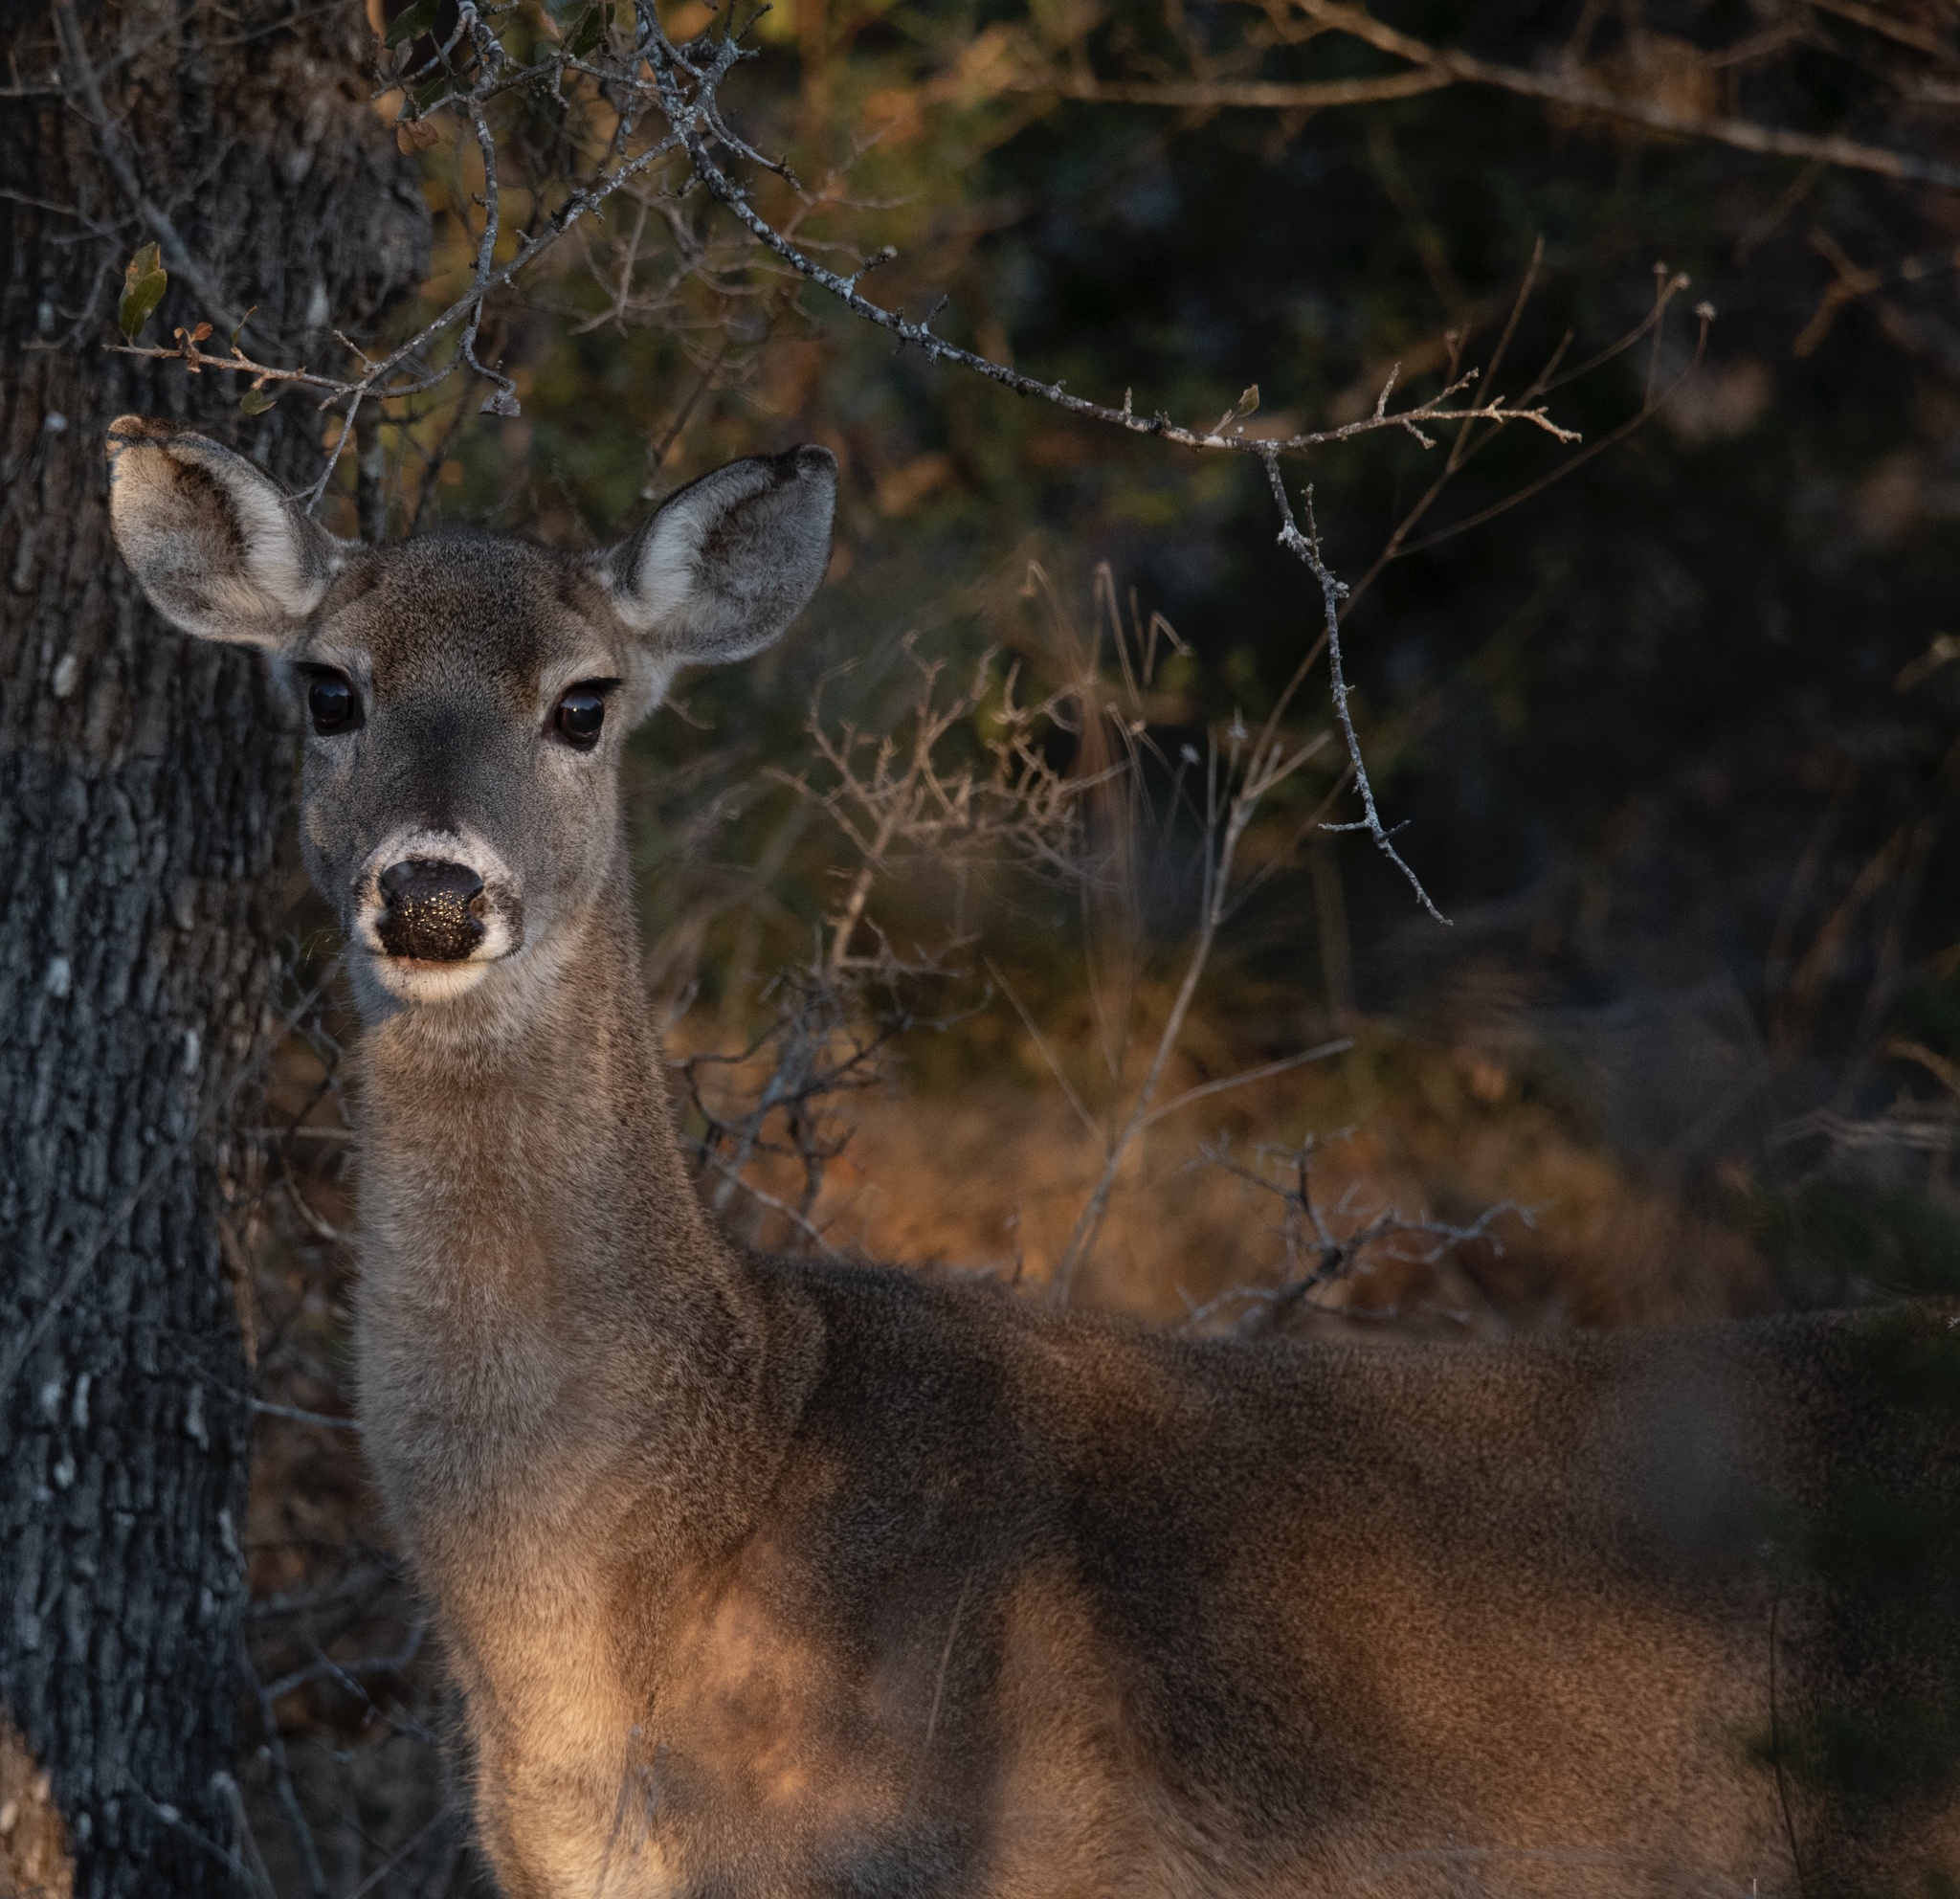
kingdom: Animalia
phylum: Chordata
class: Mammalia
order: Artiodactyla
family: Cervidae
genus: Odocoileus
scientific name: Odocoileus virginianus
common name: White-tailed deer
